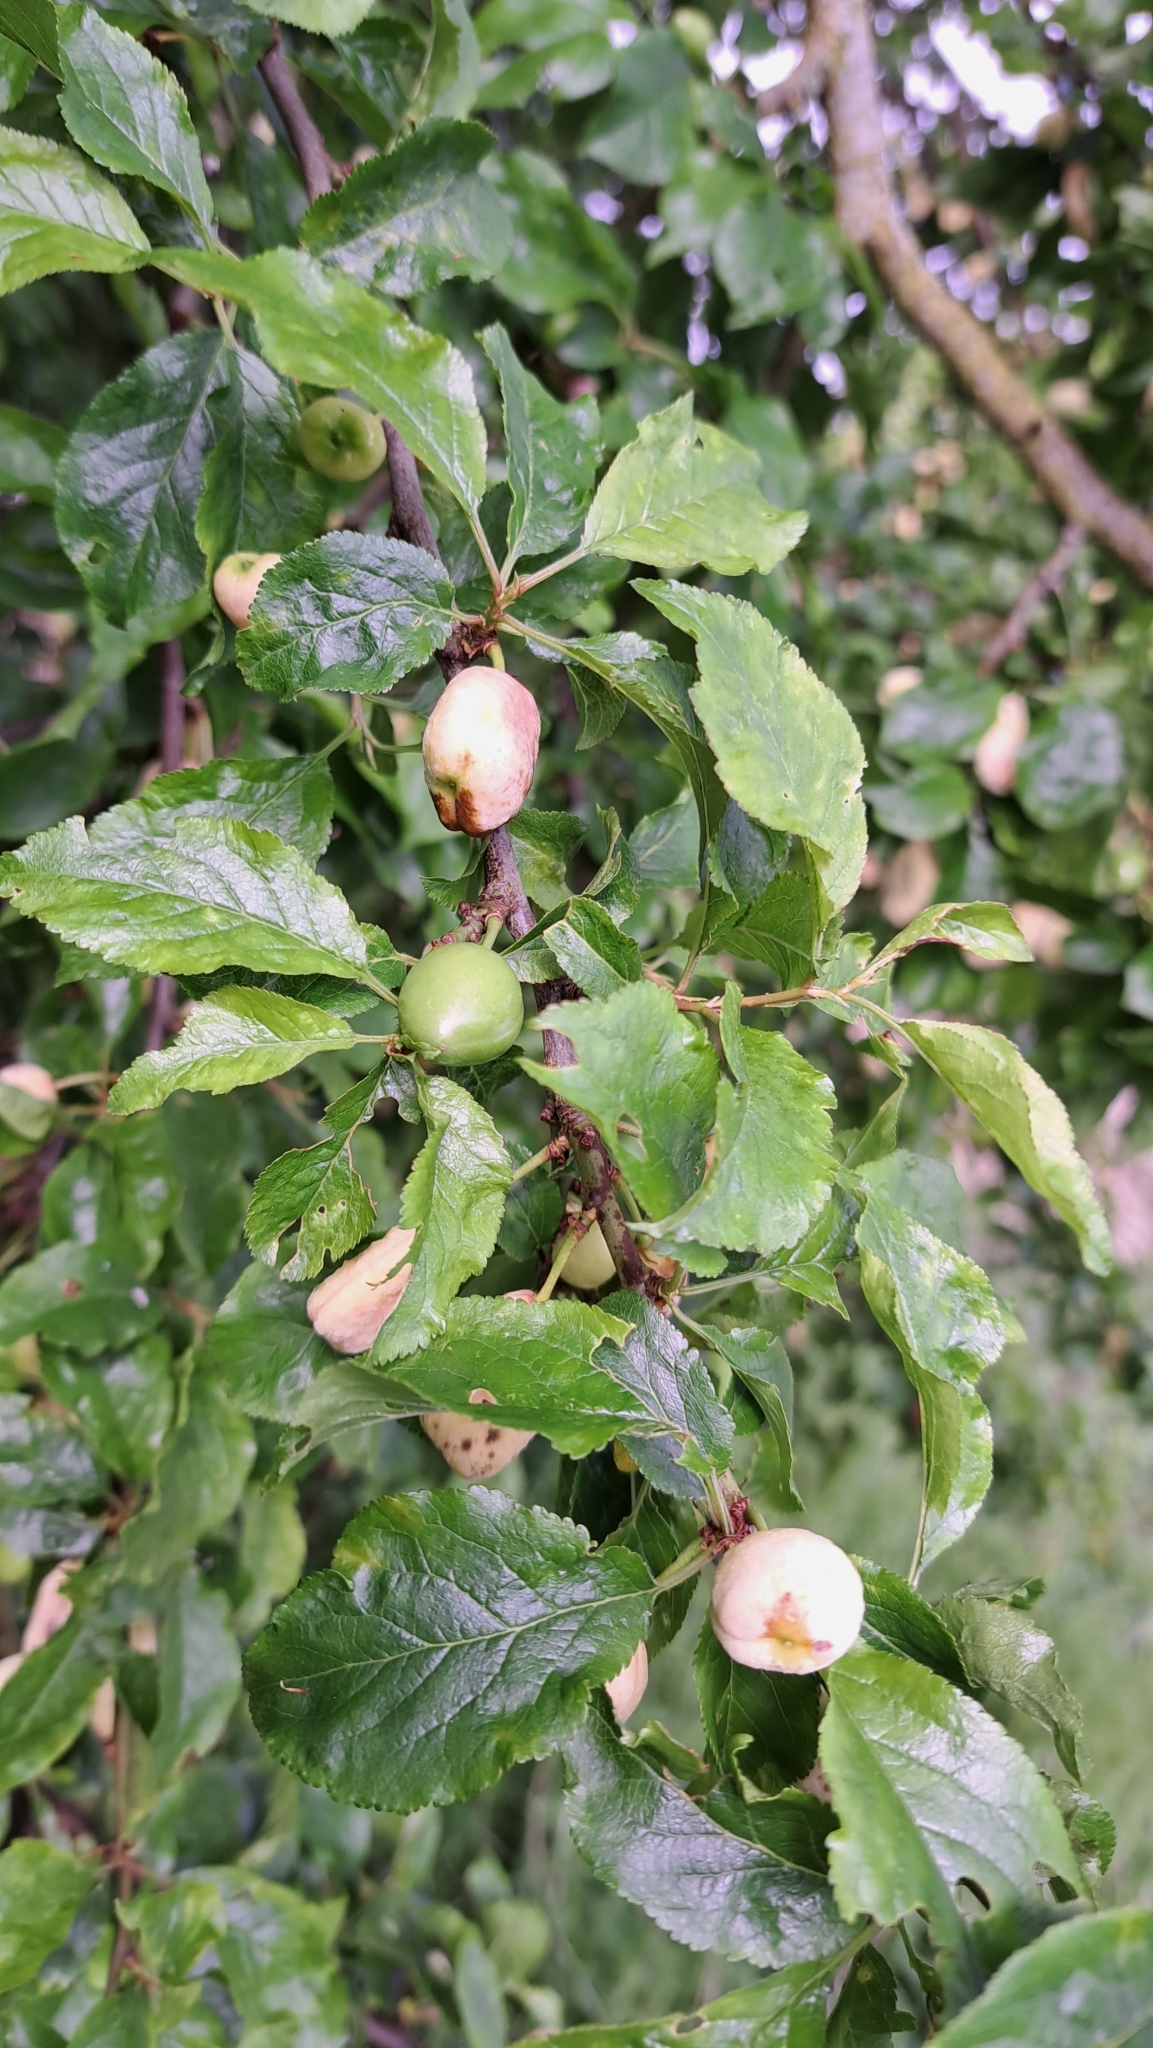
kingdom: Fungi
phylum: Ascomycota
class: Taphrinomycetes
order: Taphrinales
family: Taphrinaceae
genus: Taphrina
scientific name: Taphrina pruni
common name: Pocket plum
